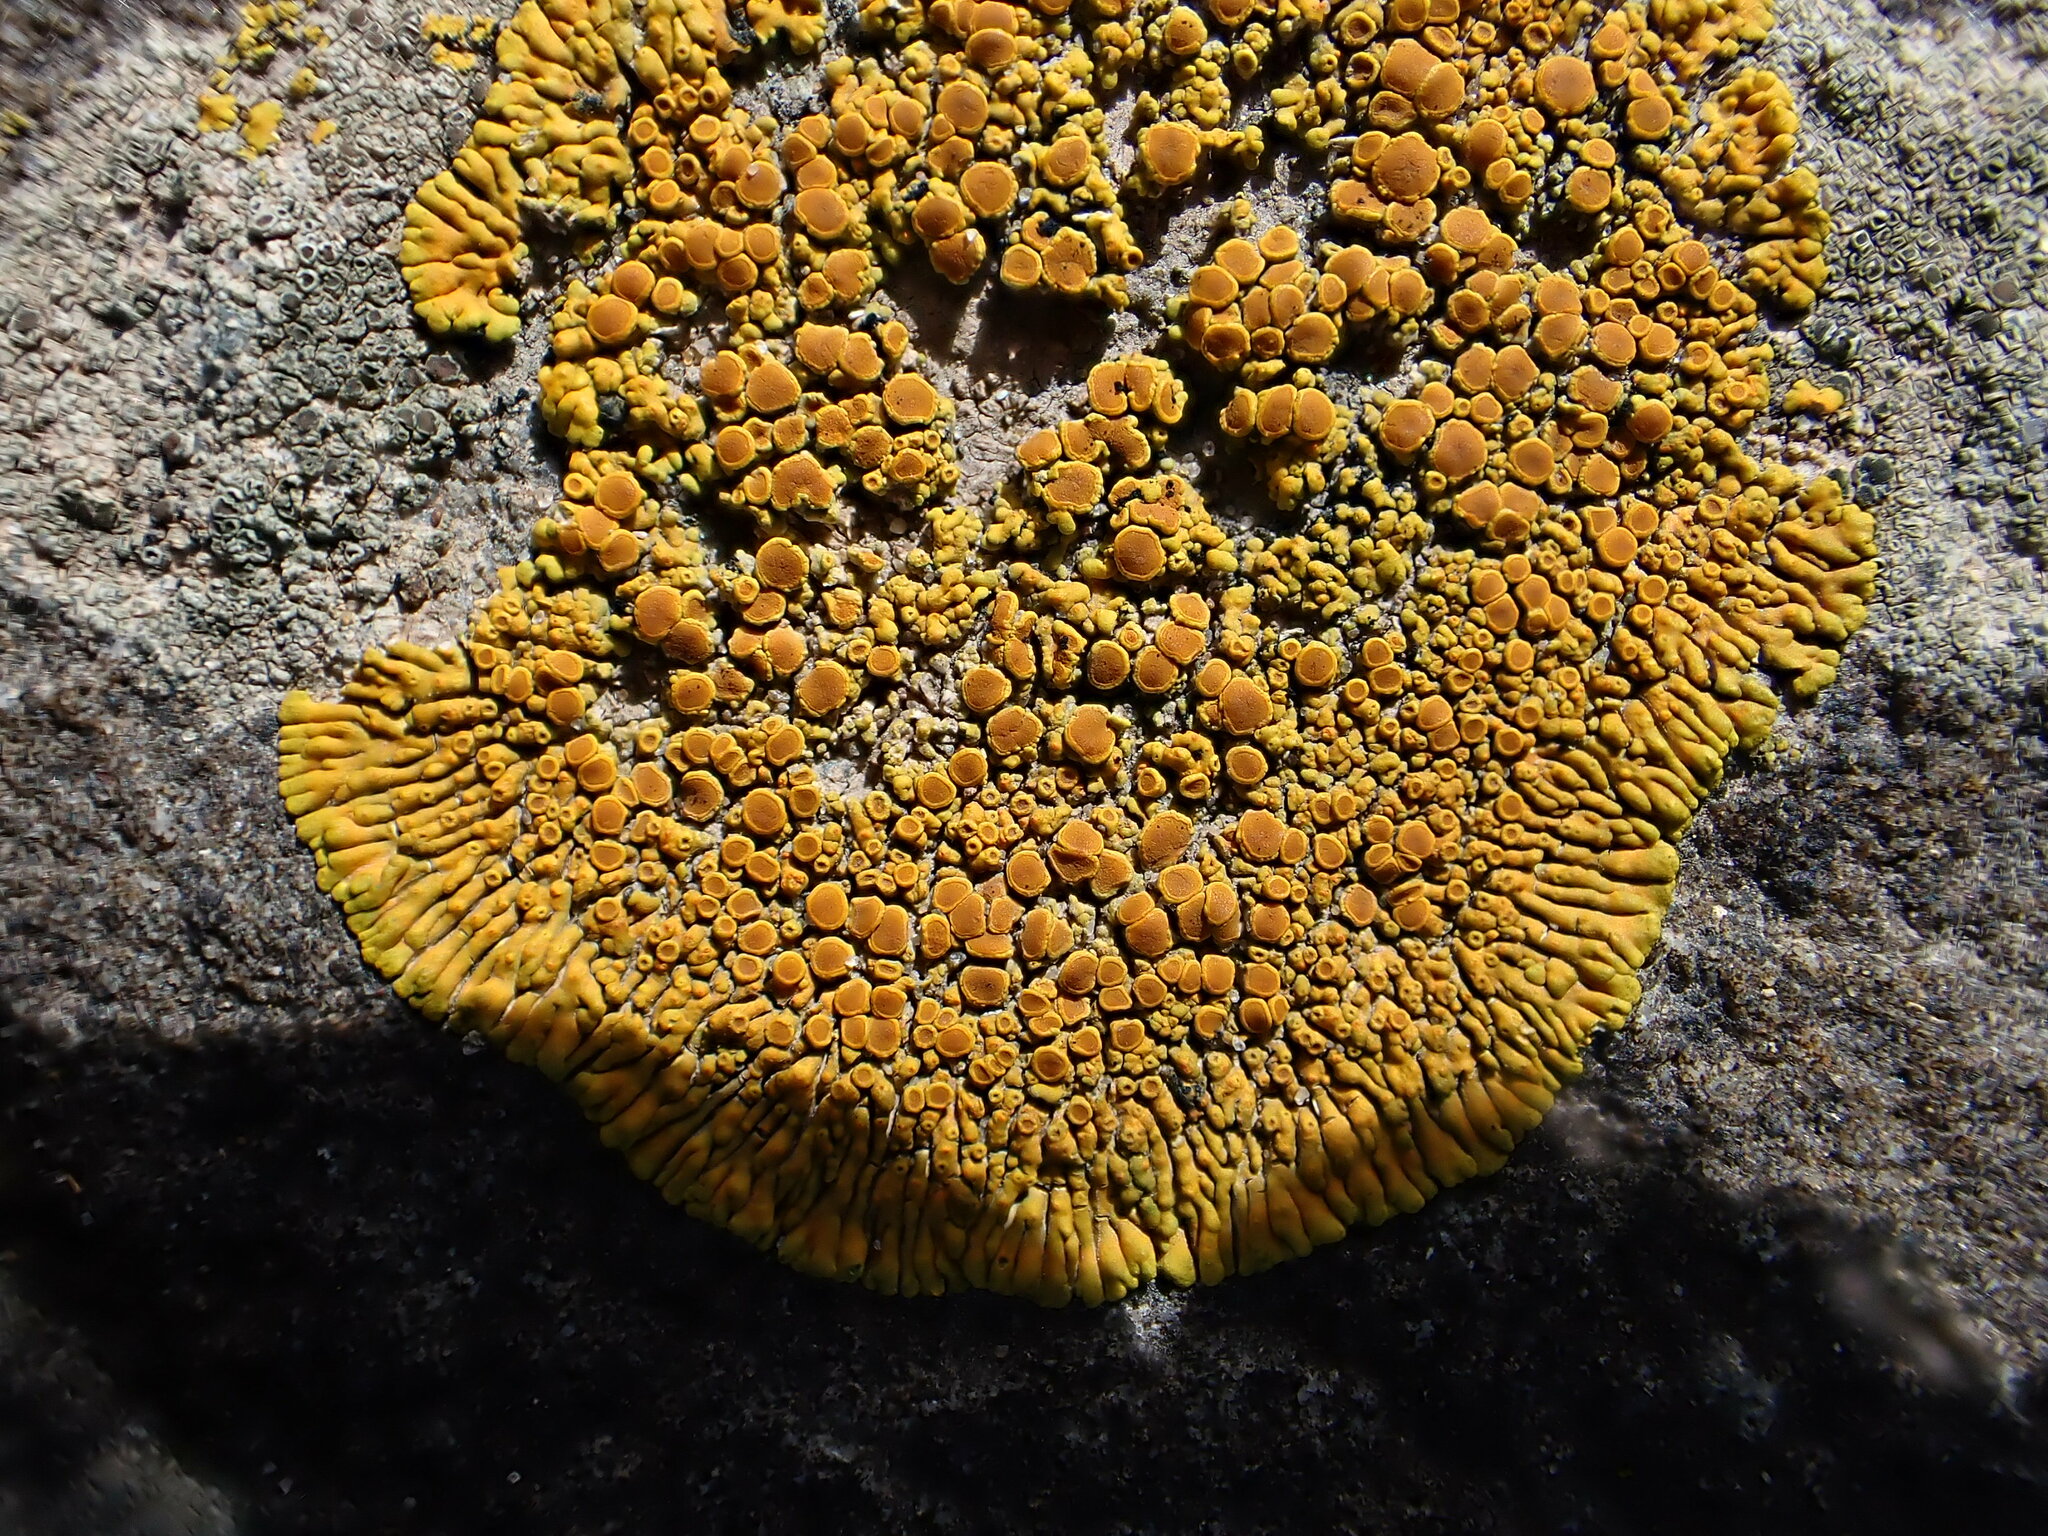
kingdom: Fungi
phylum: Ascomycota
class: Lecanoromycetes
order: Teloschistales
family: Teloschistaceae
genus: Variospora
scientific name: Variospora thallincola
